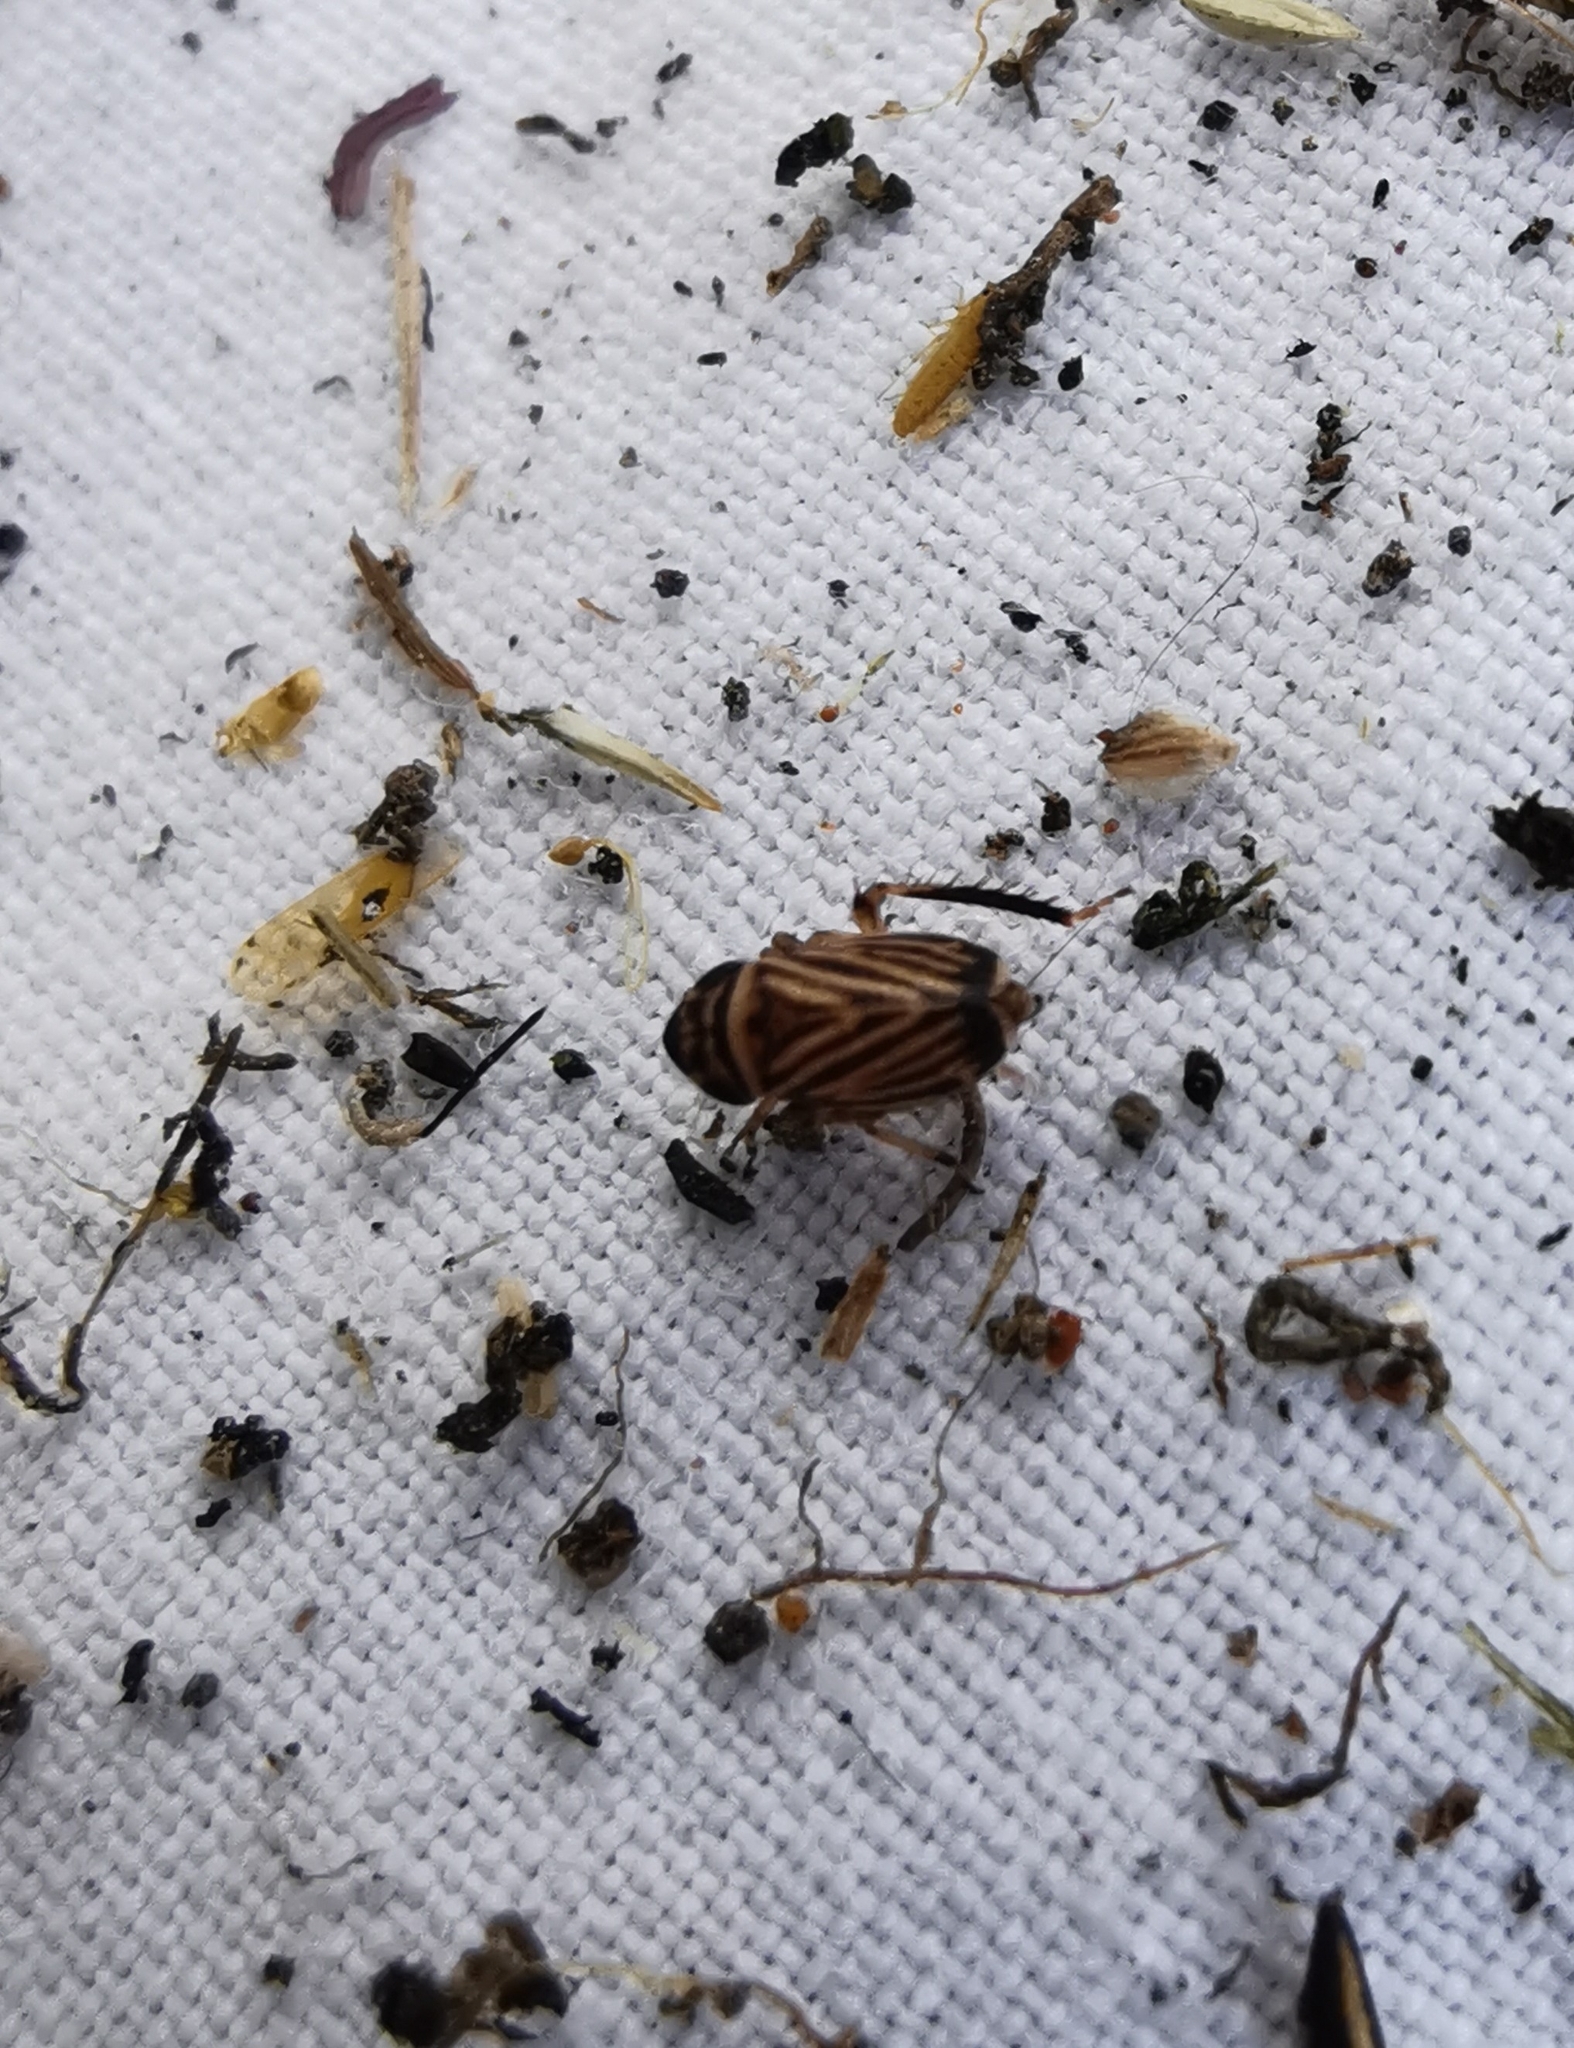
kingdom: Animalia
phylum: Arthropoda
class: Insecta
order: Hemiptera
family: Cicadellidae
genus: Anoscopus
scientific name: Anoscopus flavostriatus
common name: Leafhopper
